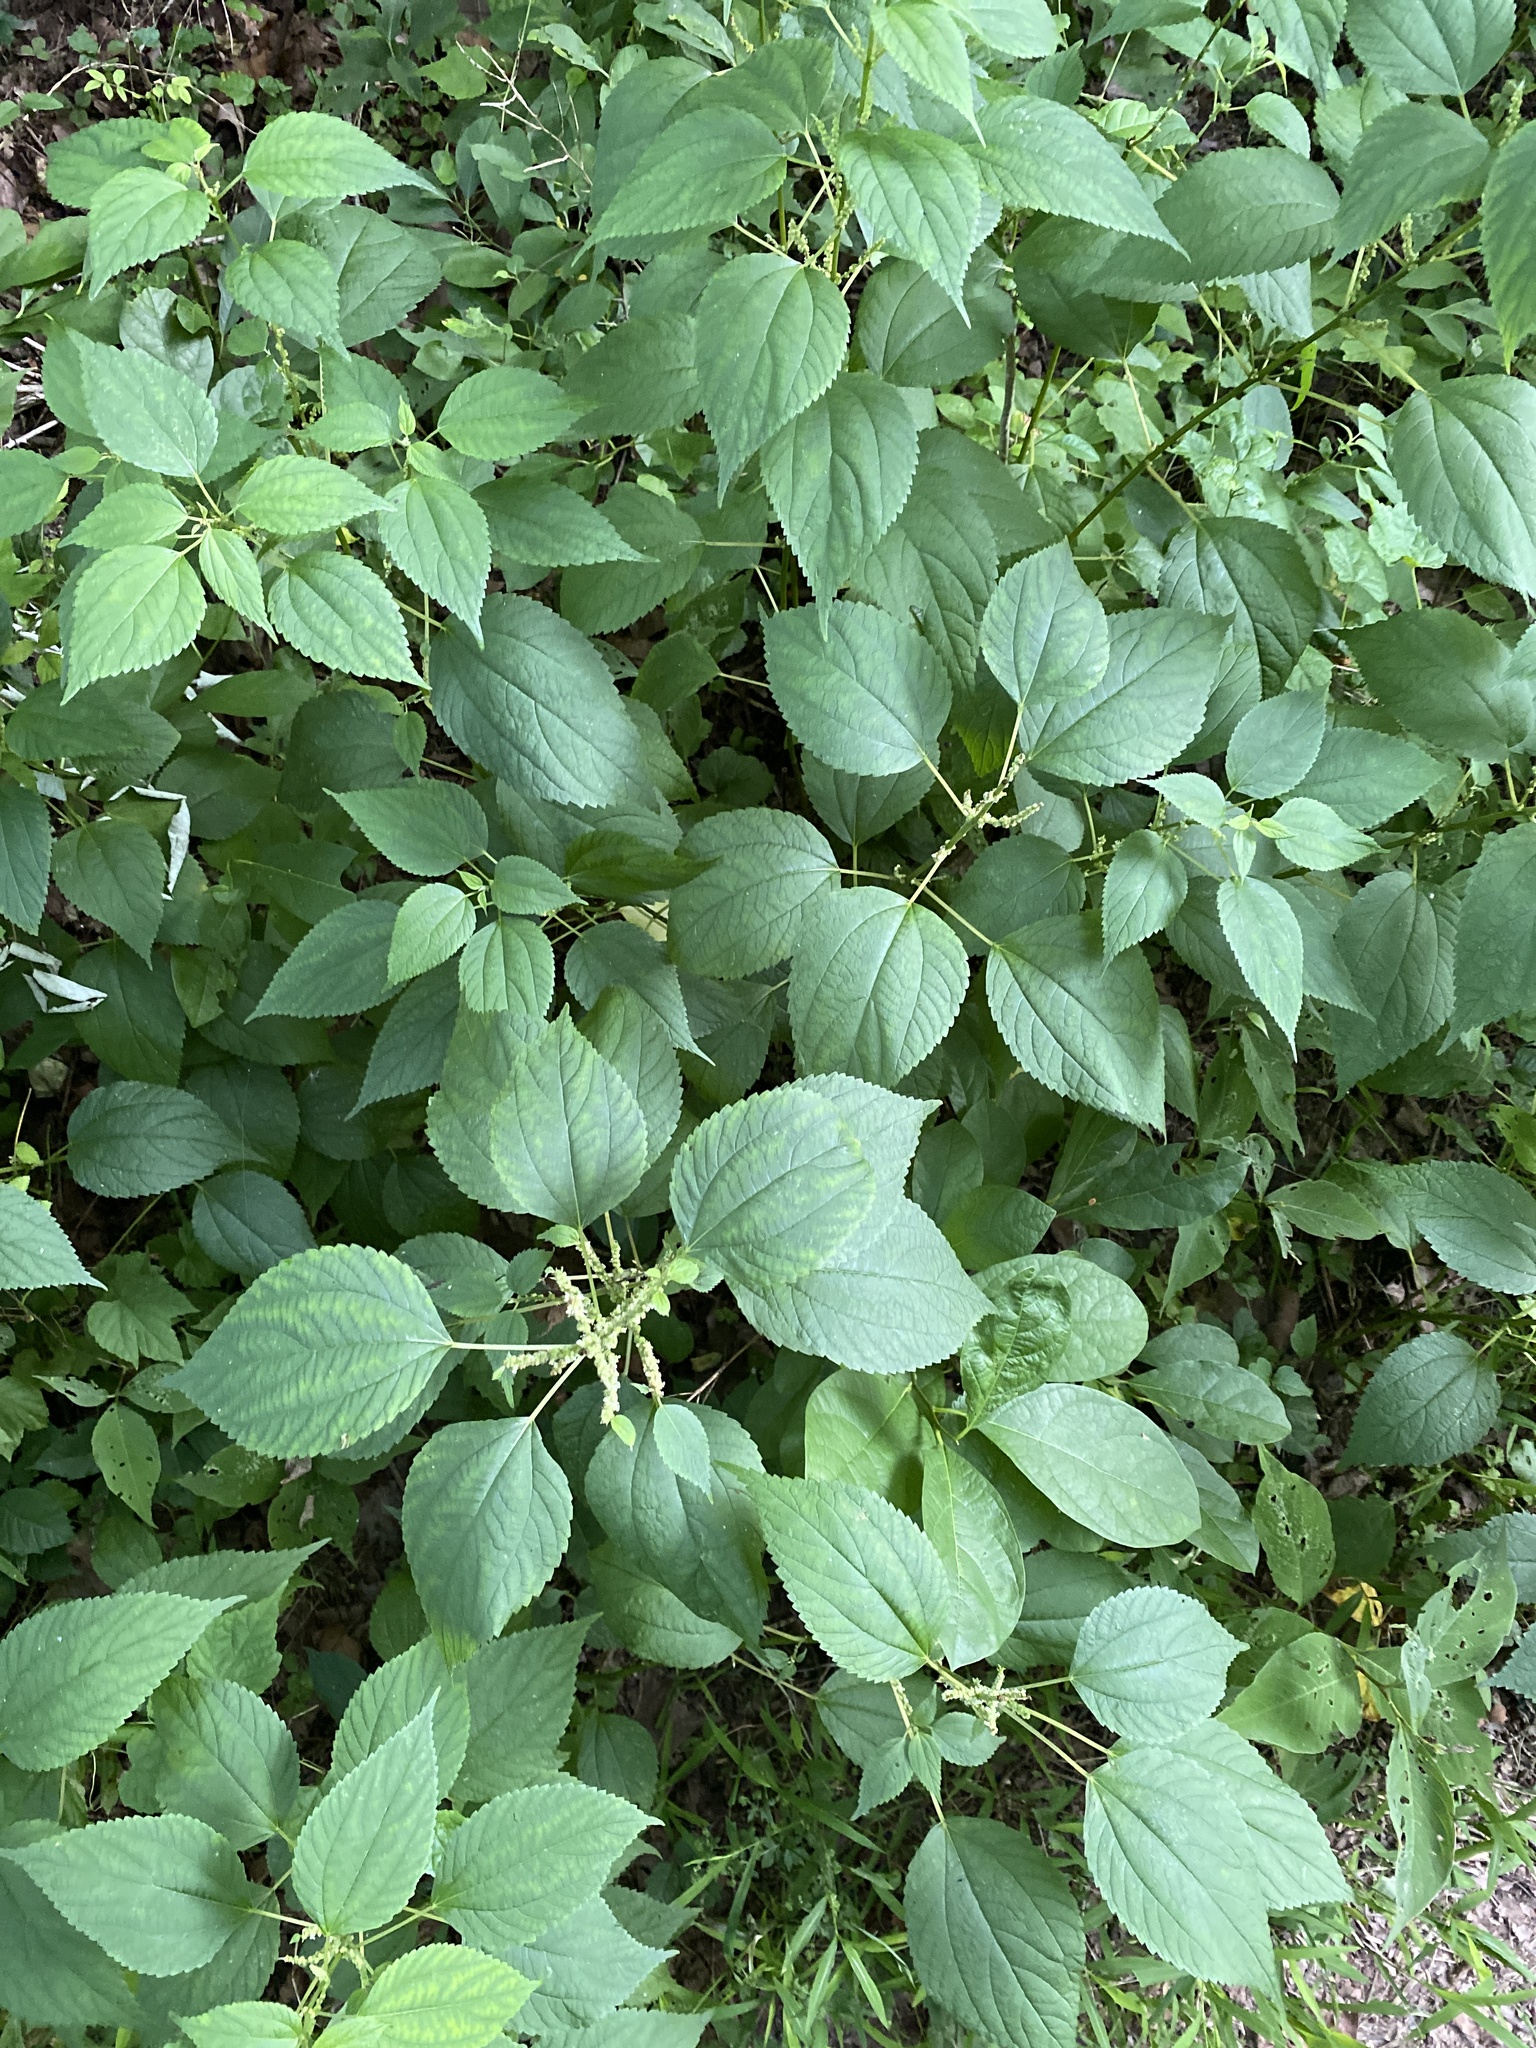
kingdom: Plantae
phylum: Tracheophyta
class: Magnoliopsida
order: Rosales
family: Urticaceae
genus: Boehmeria
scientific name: Boehmeria cylindrica
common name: Bog-hemp
